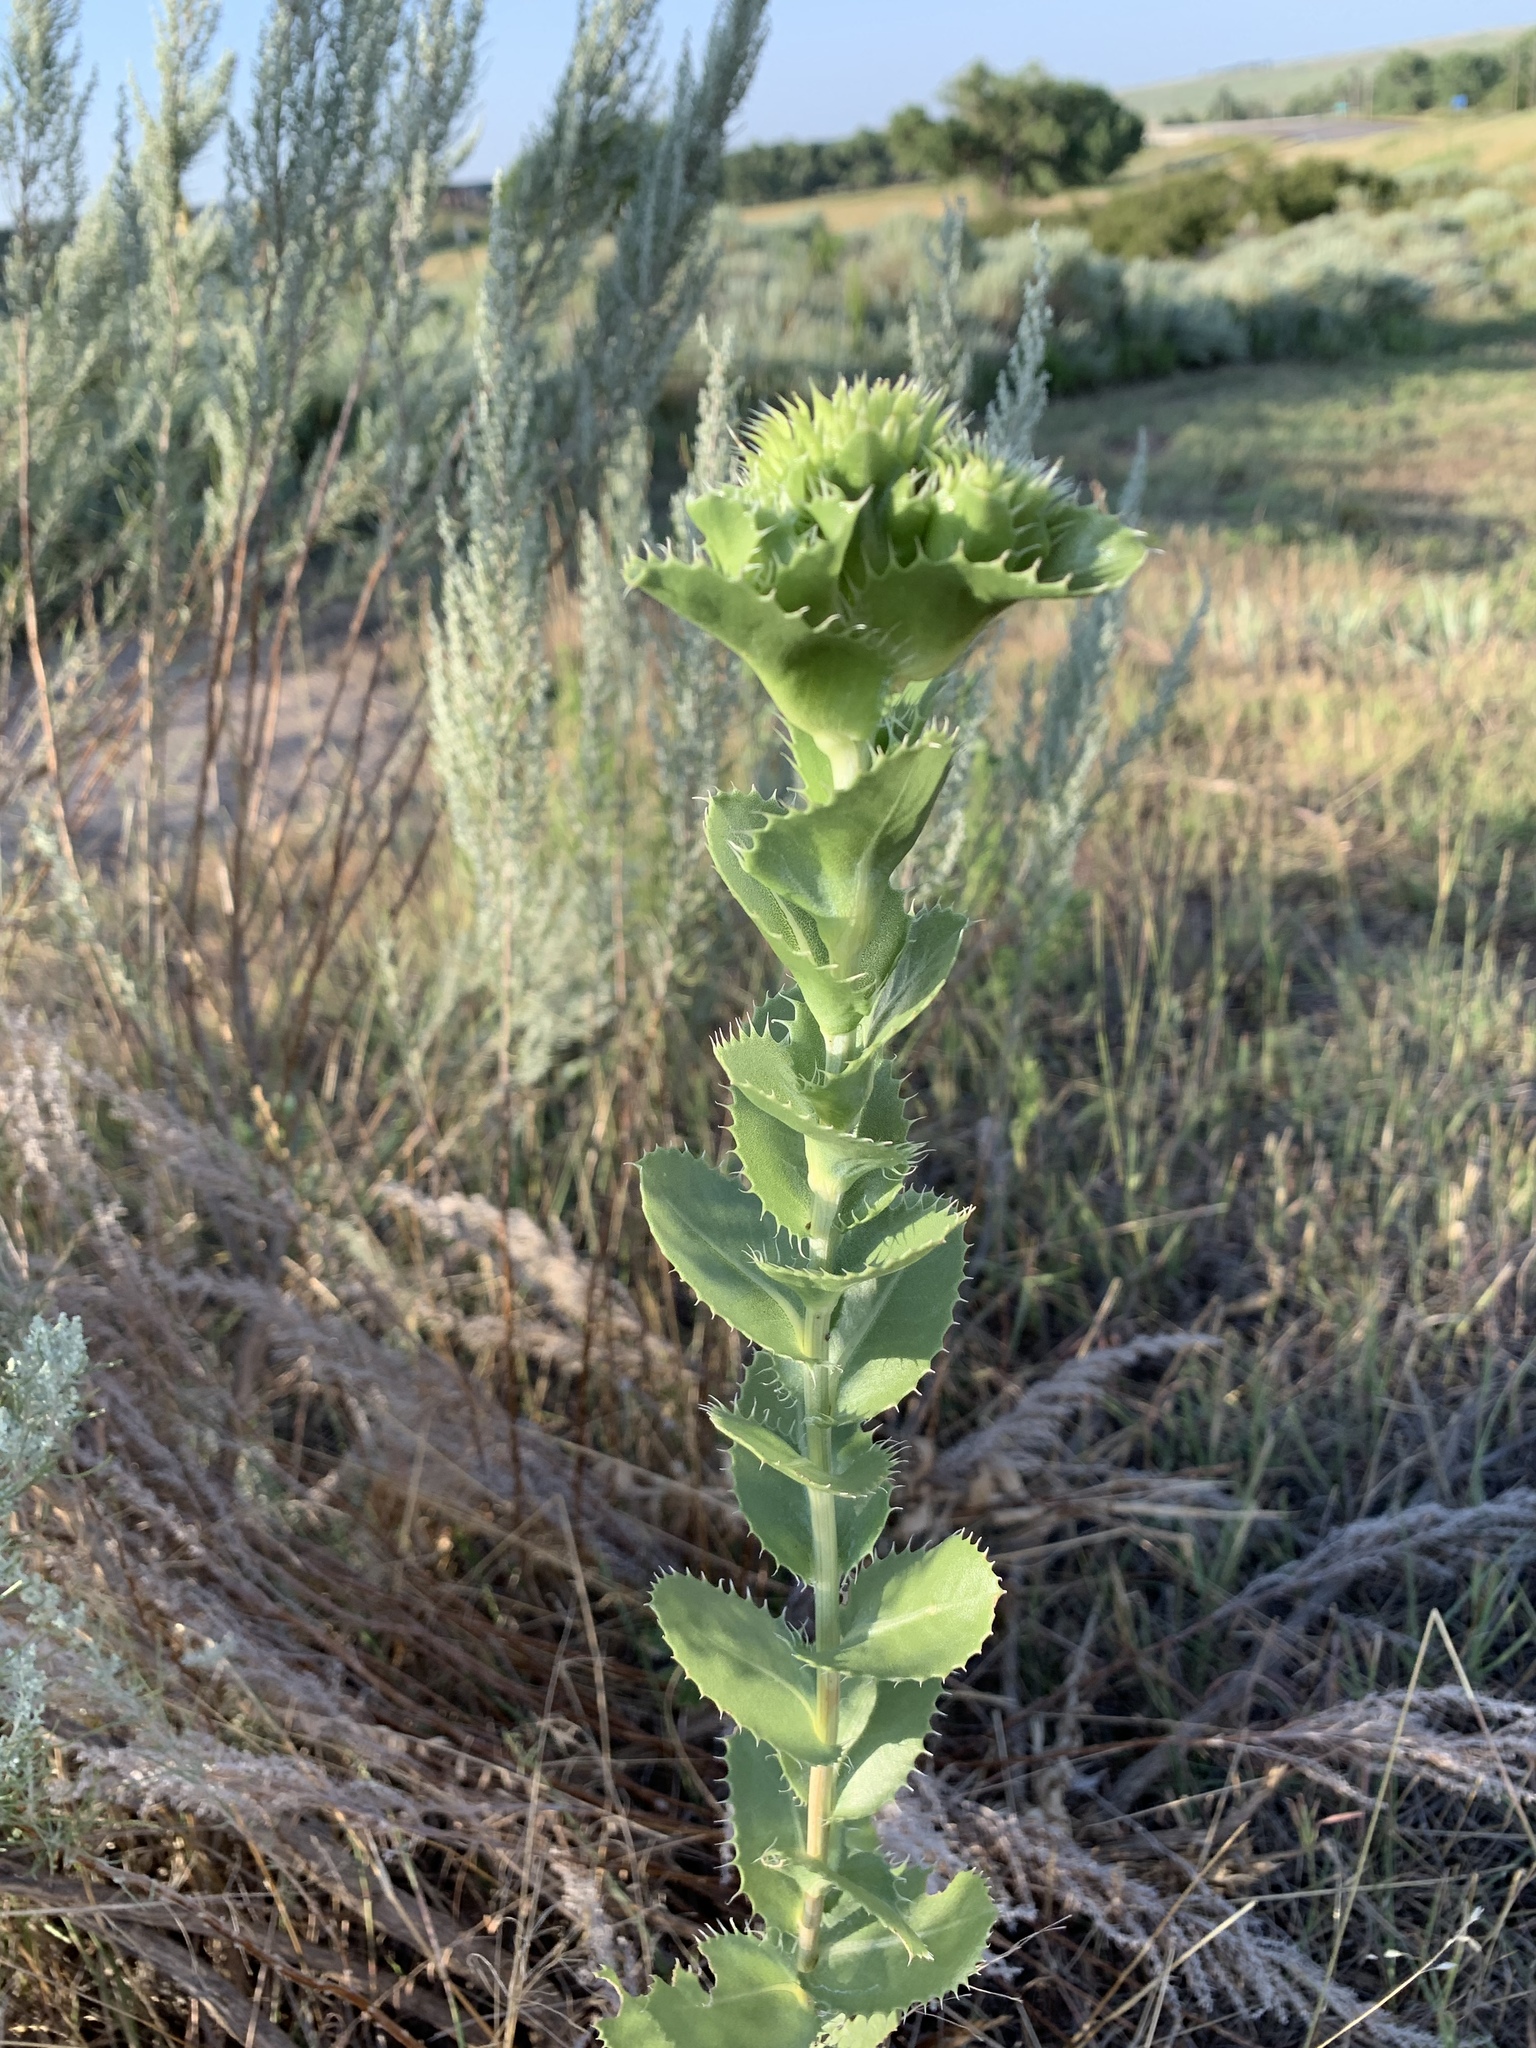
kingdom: Plantae
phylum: Tracheophyta
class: Magnoliopsida
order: Asterales
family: Asteraceae
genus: Grindelia
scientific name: Grindelia ciliata
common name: Goldenweed
